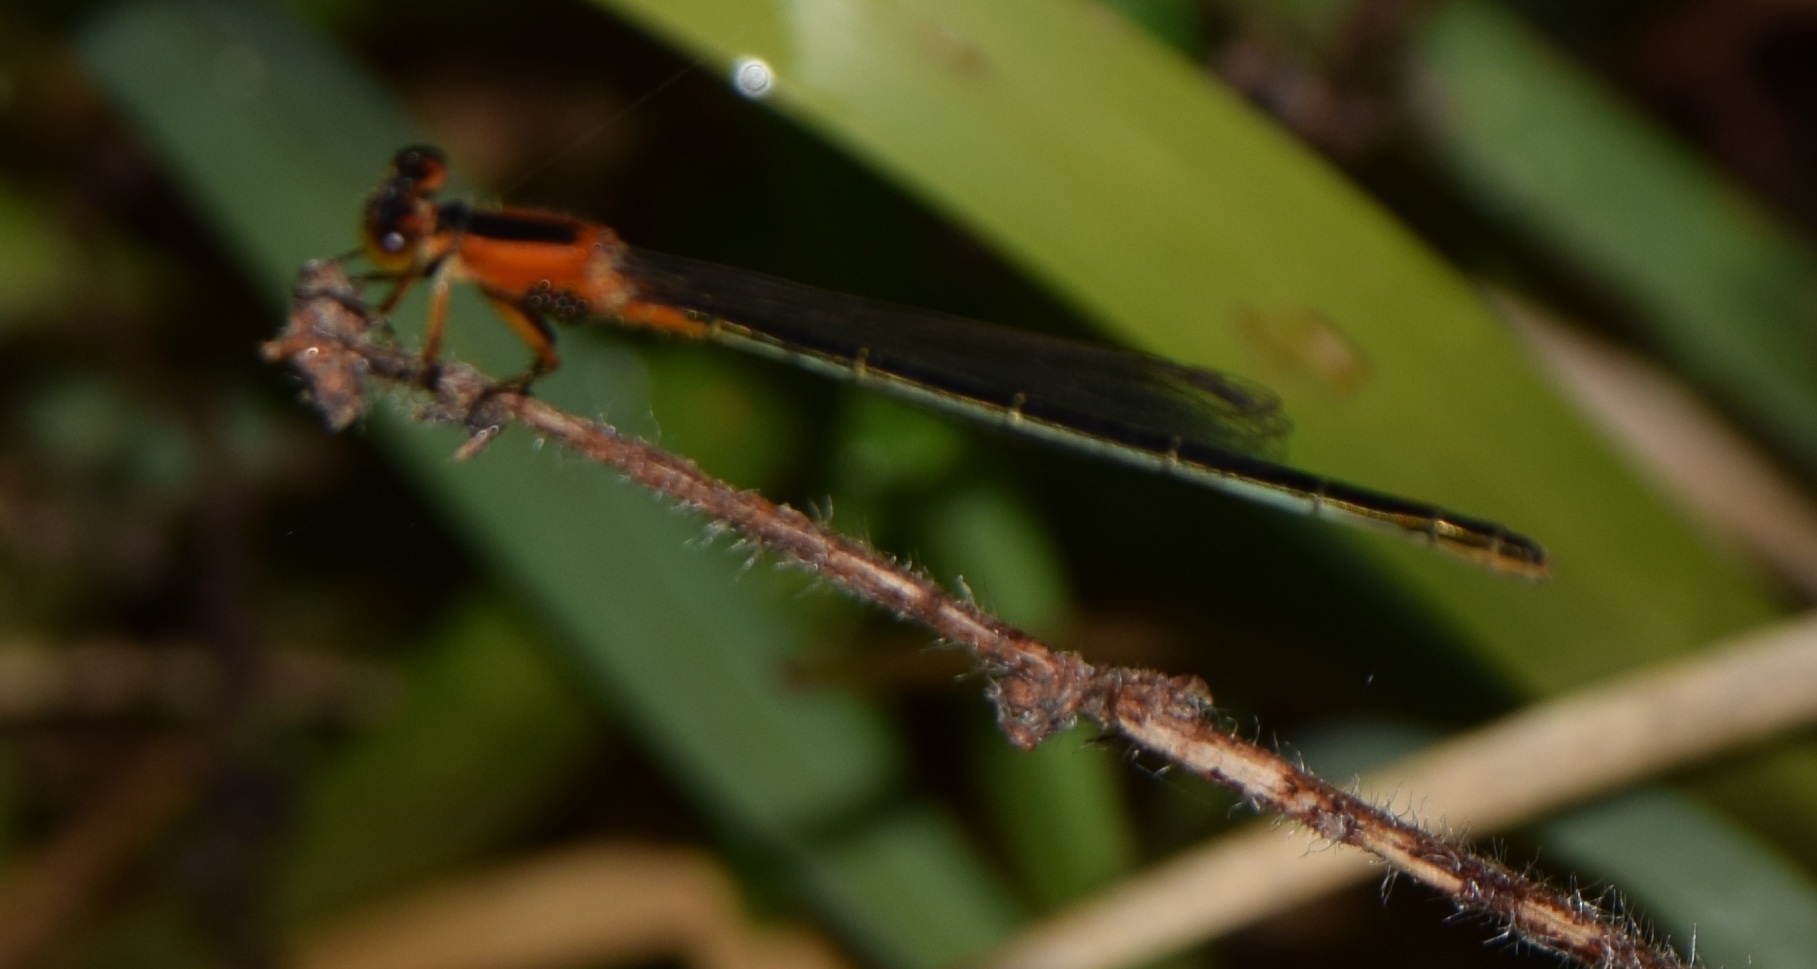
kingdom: Animalia
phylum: Arthropoda
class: Insecta
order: Odonata
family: Coenagrionidae
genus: Ischnura
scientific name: Ischnura ramburii
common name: Rambur's forktail
